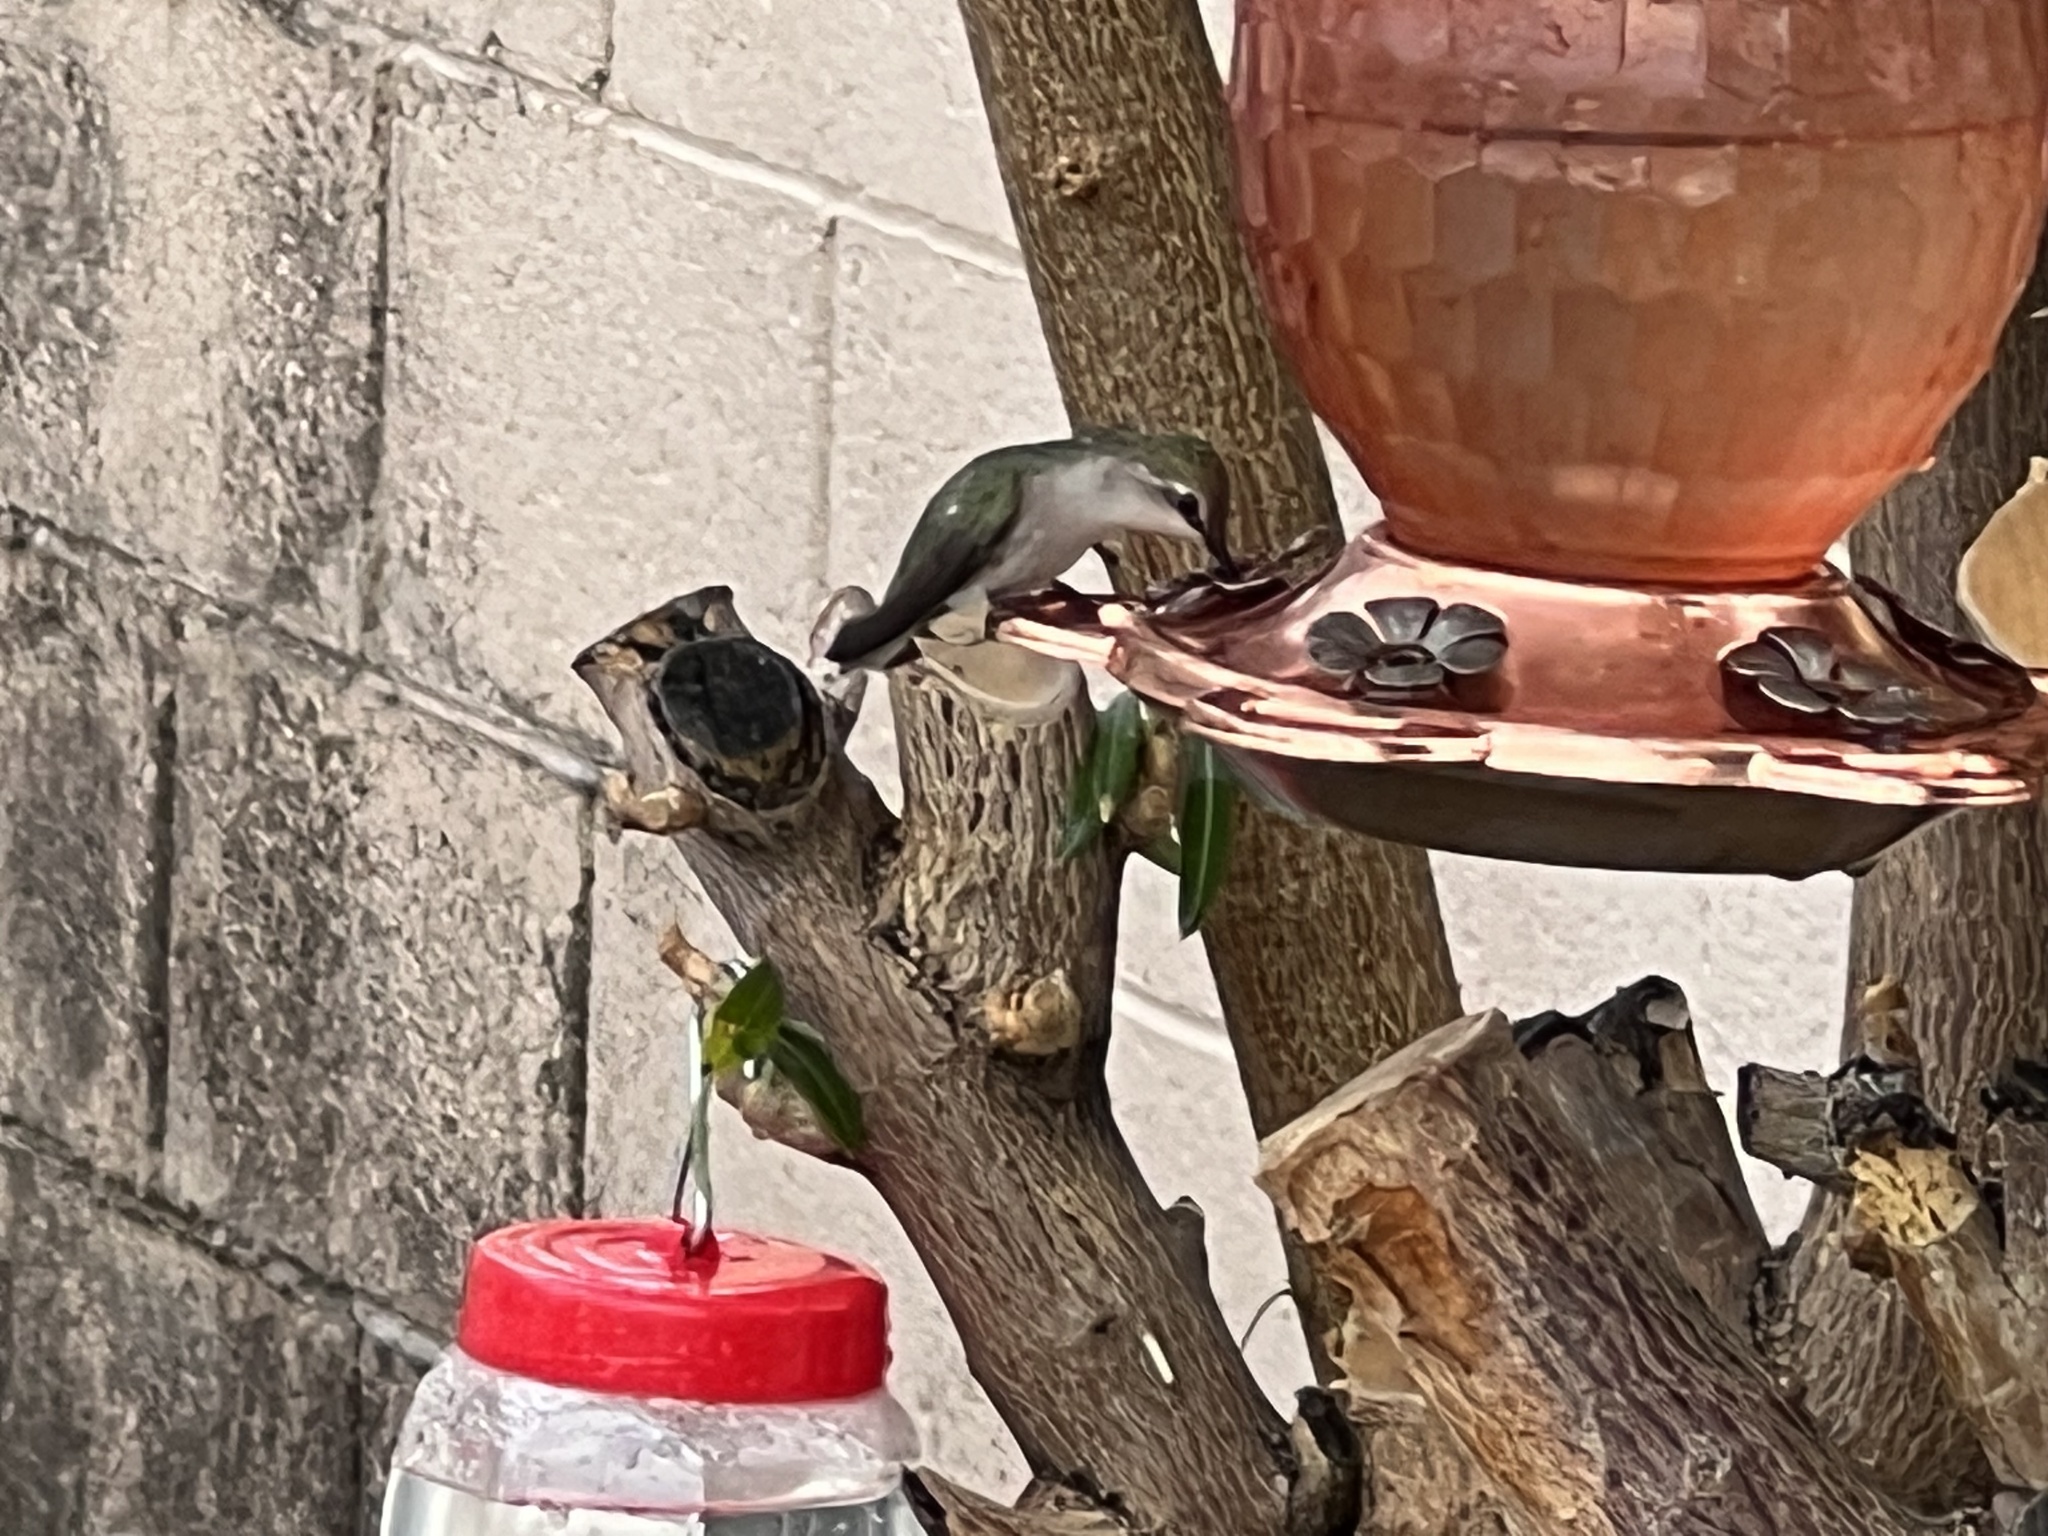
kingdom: Animalia
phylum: Chordata
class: Aves
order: Apodiformes
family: Trochilidae
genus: Calypte
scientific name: Calypte costae
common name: Costa's hummingbird
